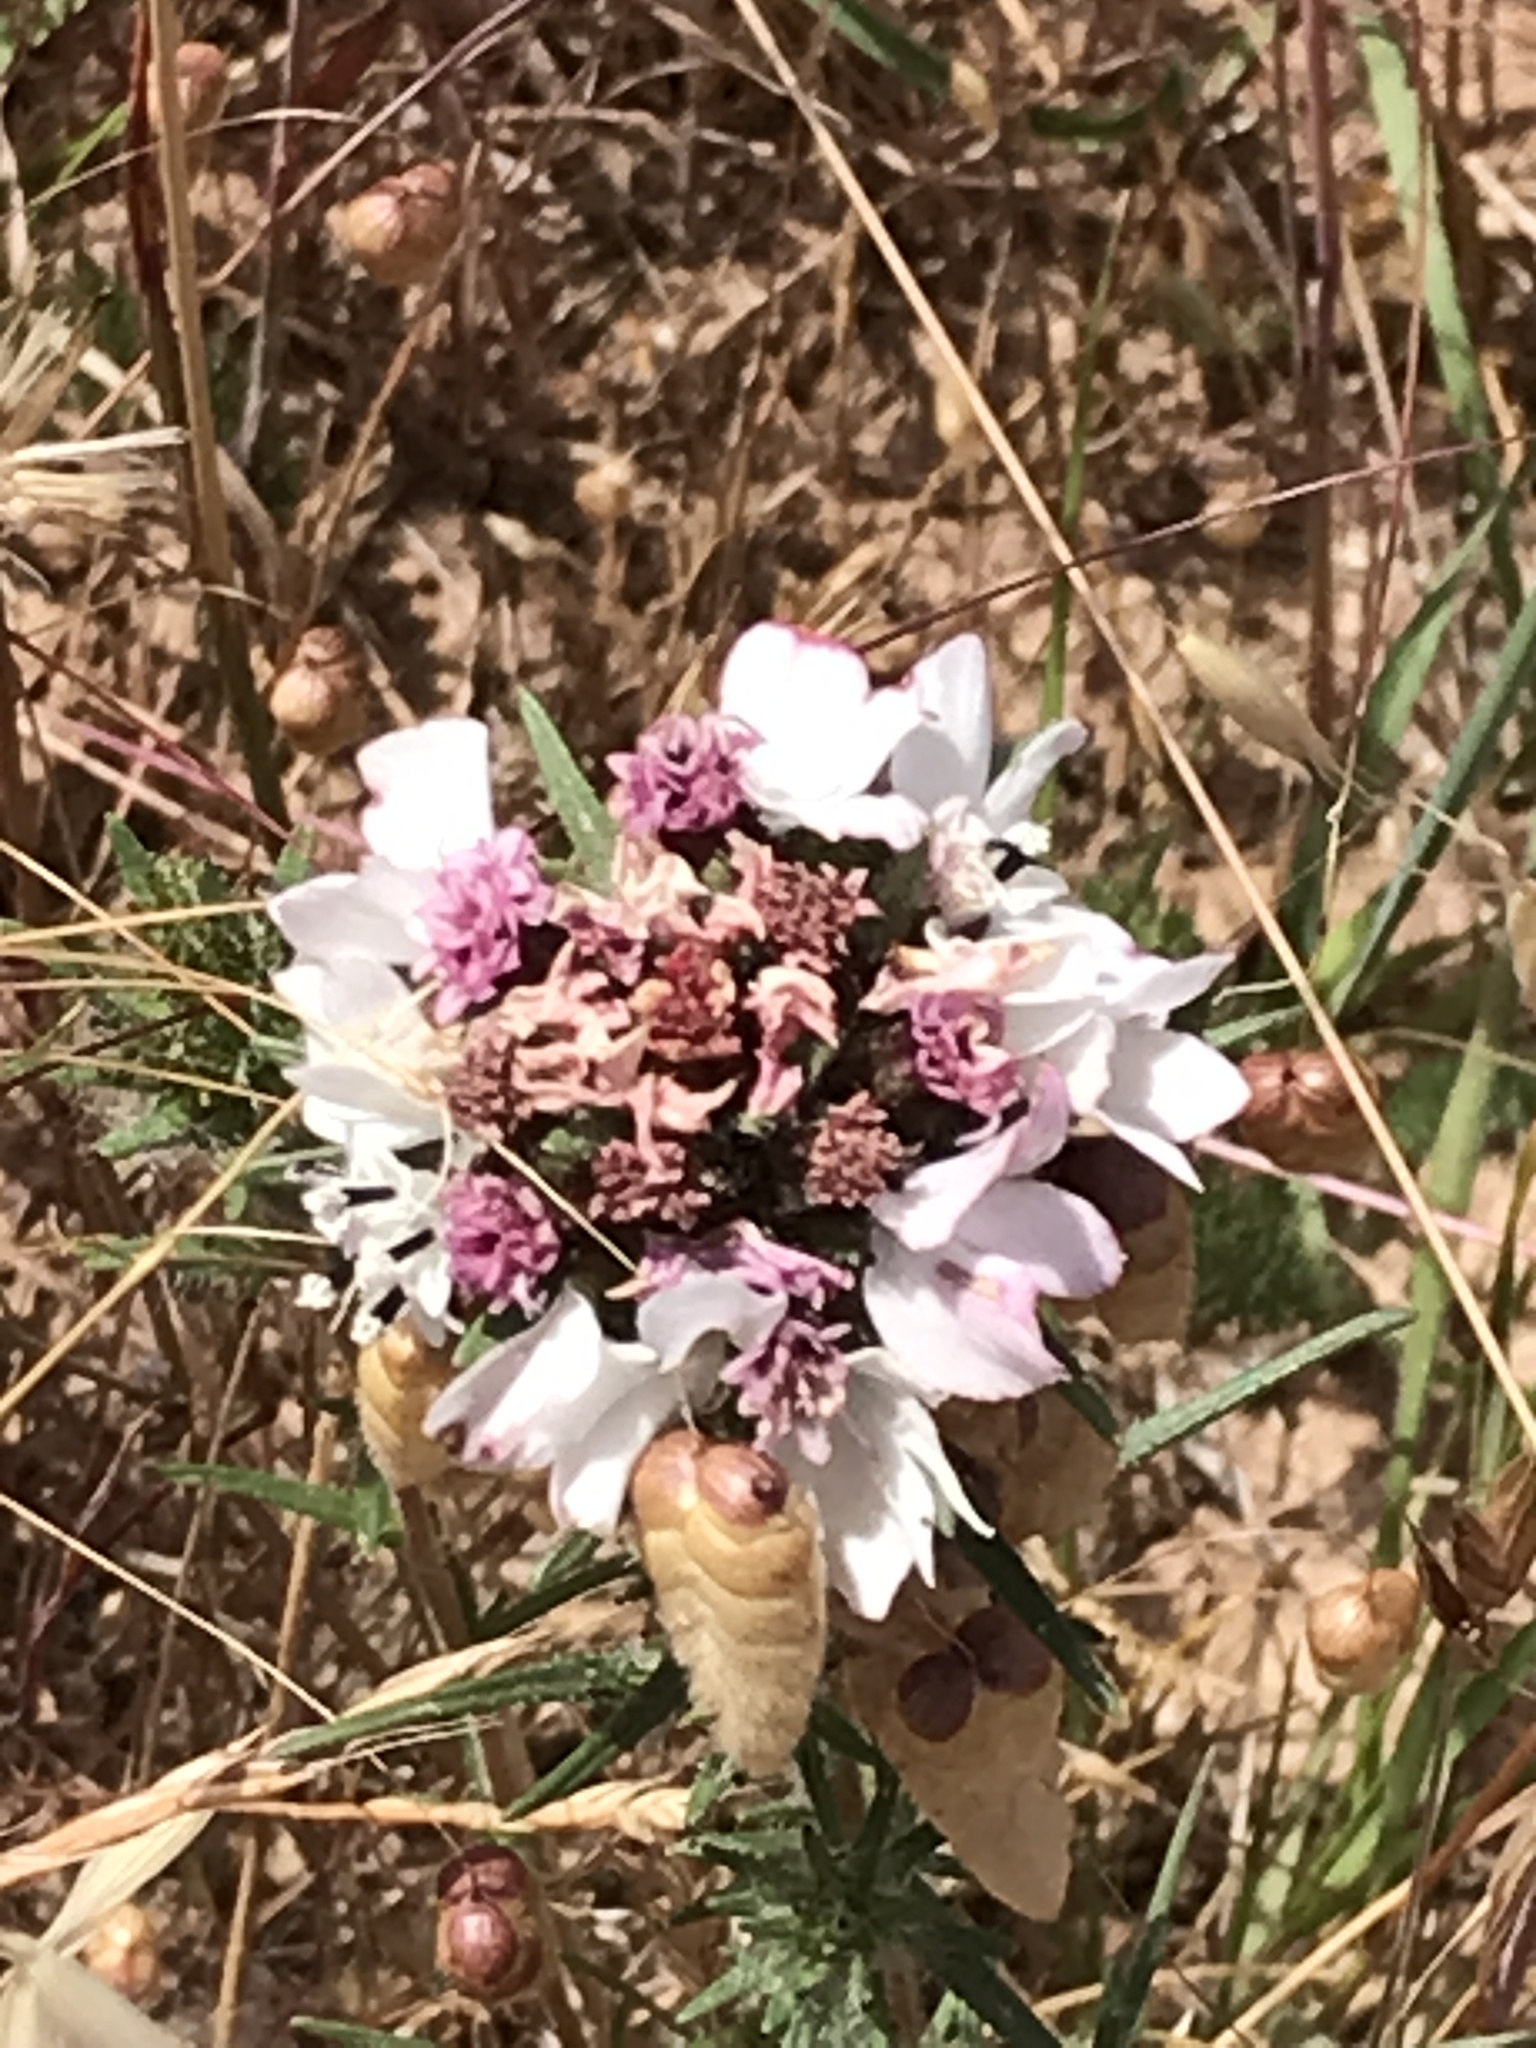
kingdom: Plantae
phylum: Tracheophyta
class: Magnoliopsida
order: Asterales
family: Asteraceae
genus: Calycadenia
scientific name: Calycadenia multiglandulosa
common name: Sticky calycadenia
